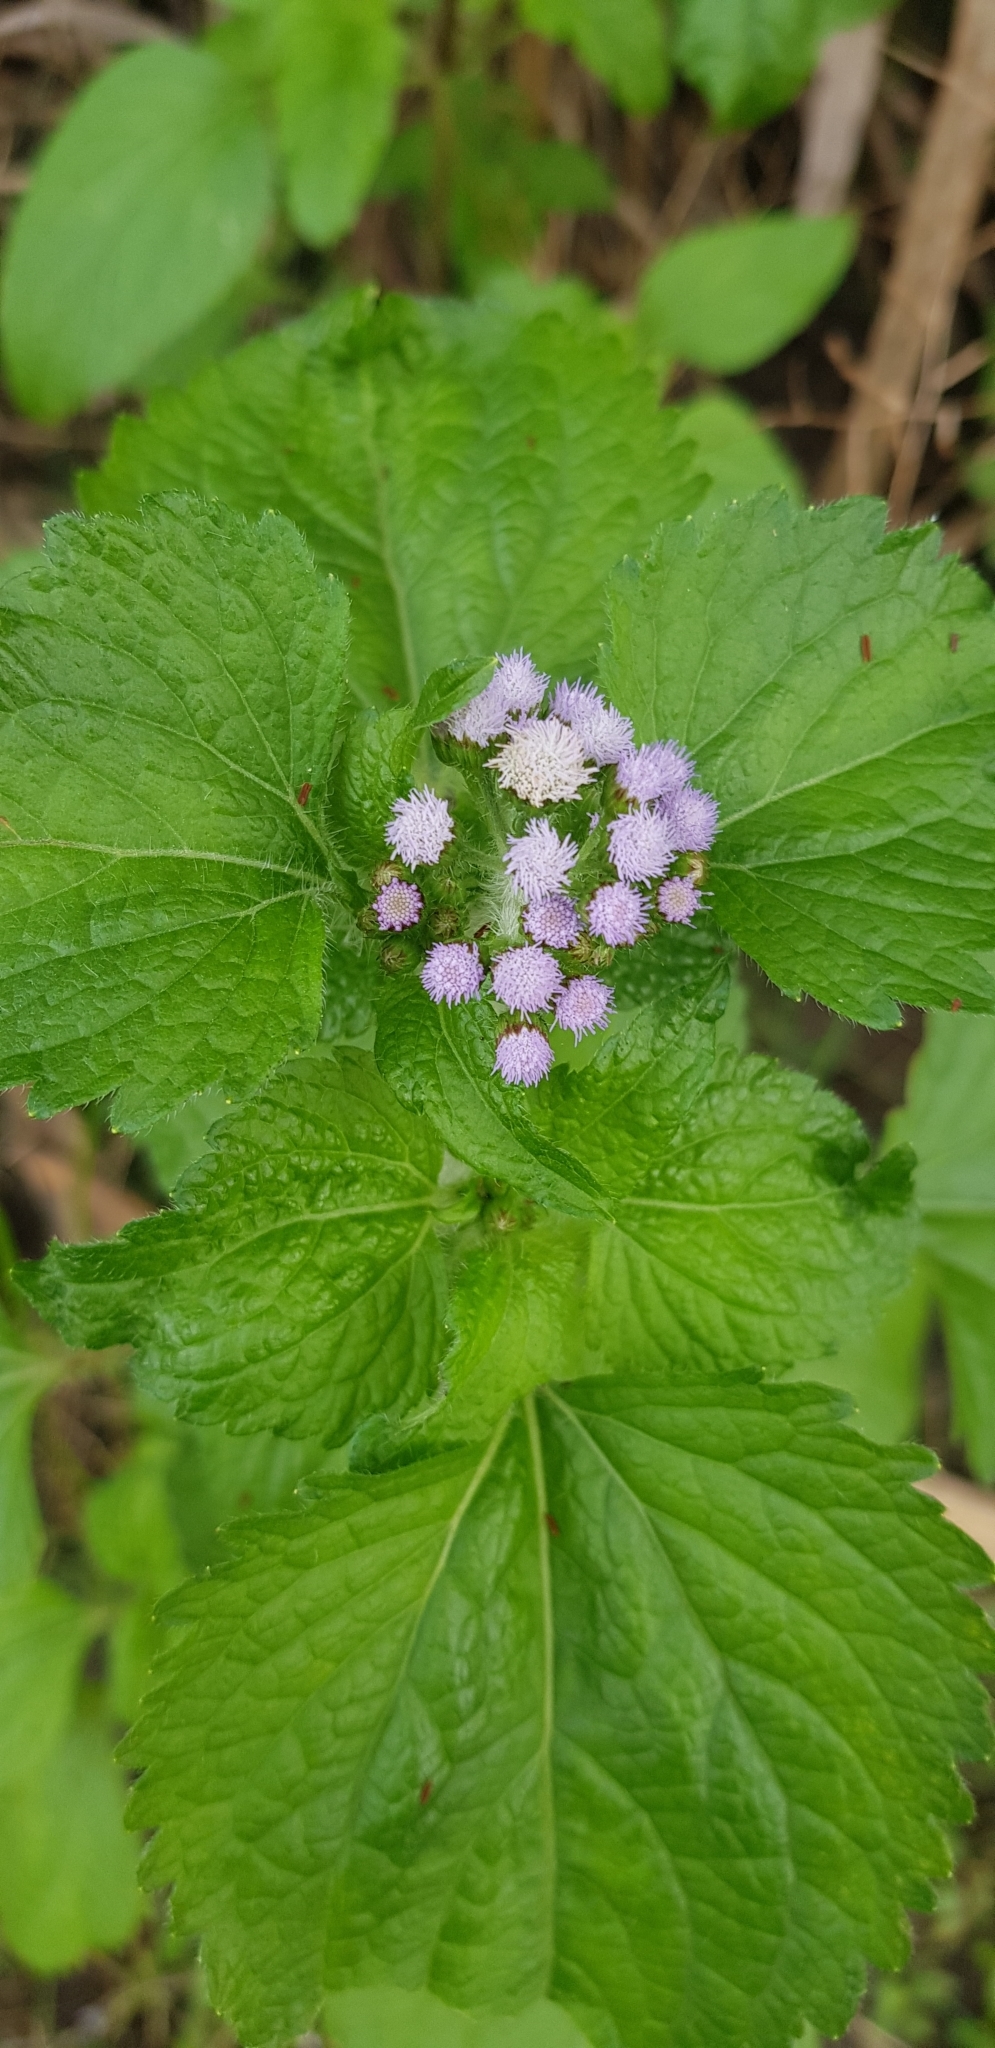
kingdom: Plantae
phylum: Tracheophyta
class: Magnoliopsida
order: Asterales
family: Asteraceae
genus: Ageratum
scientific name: Ageratum conyzoides
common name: Tropical whiteweed
